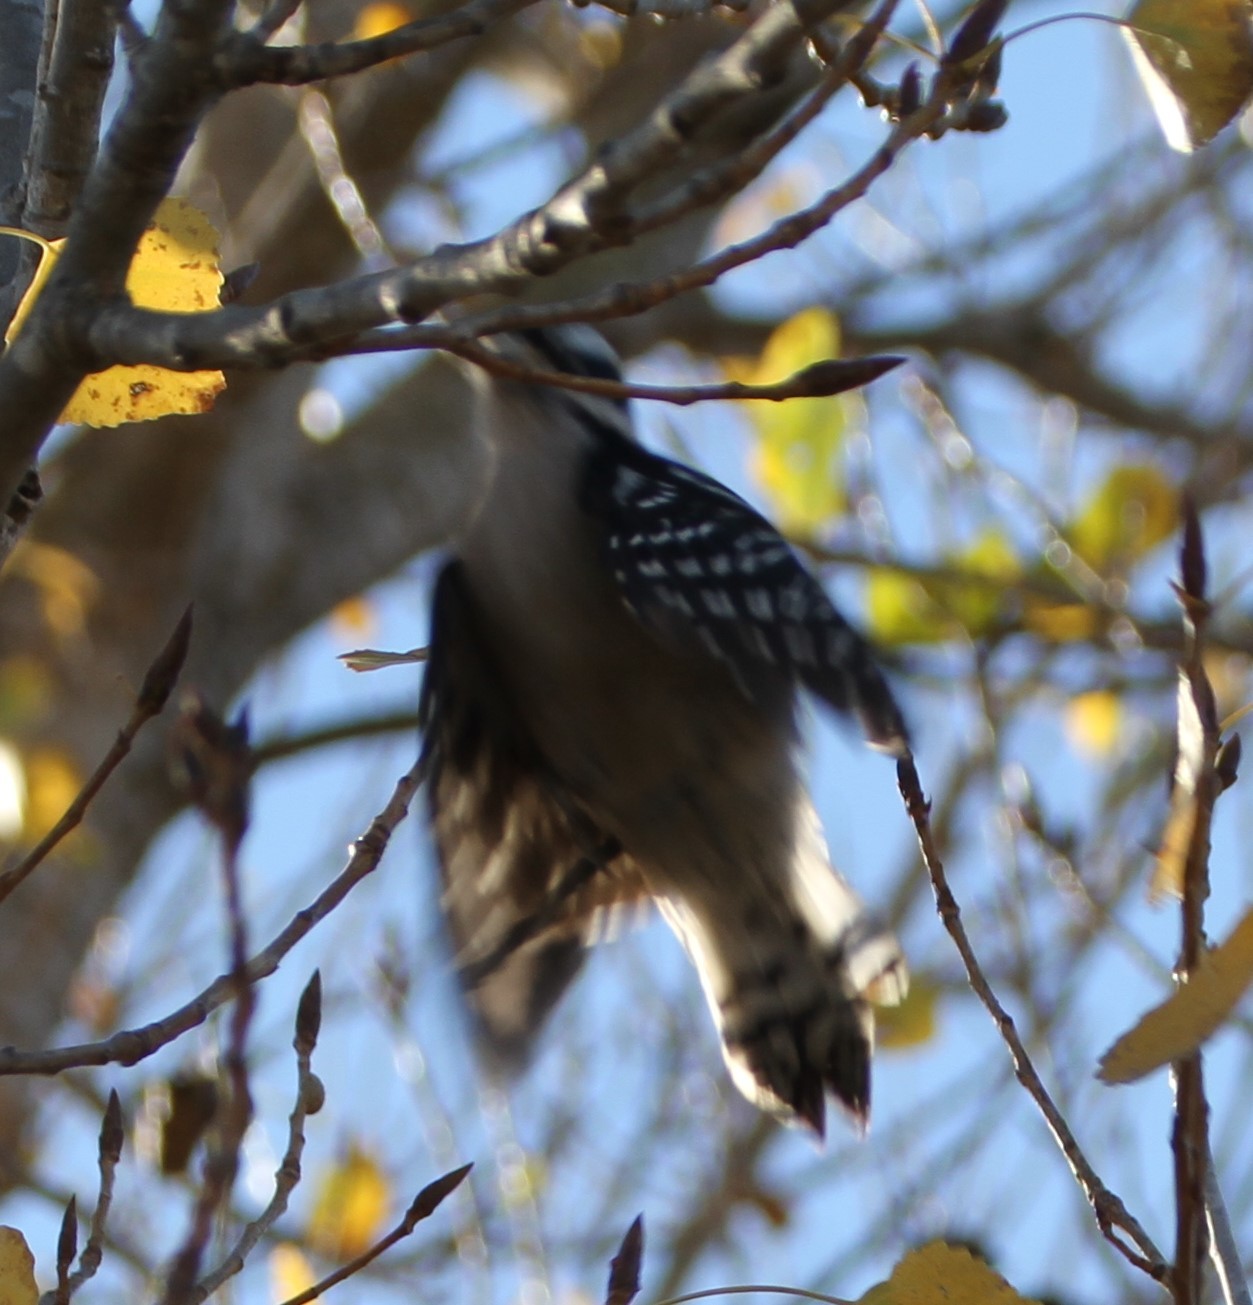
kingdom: Animalia
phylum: Chordata
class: Aves
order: Piciformes
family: Picidae
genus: Dryobates
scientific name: Dryobates pubescens
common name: Downy woodpecker
